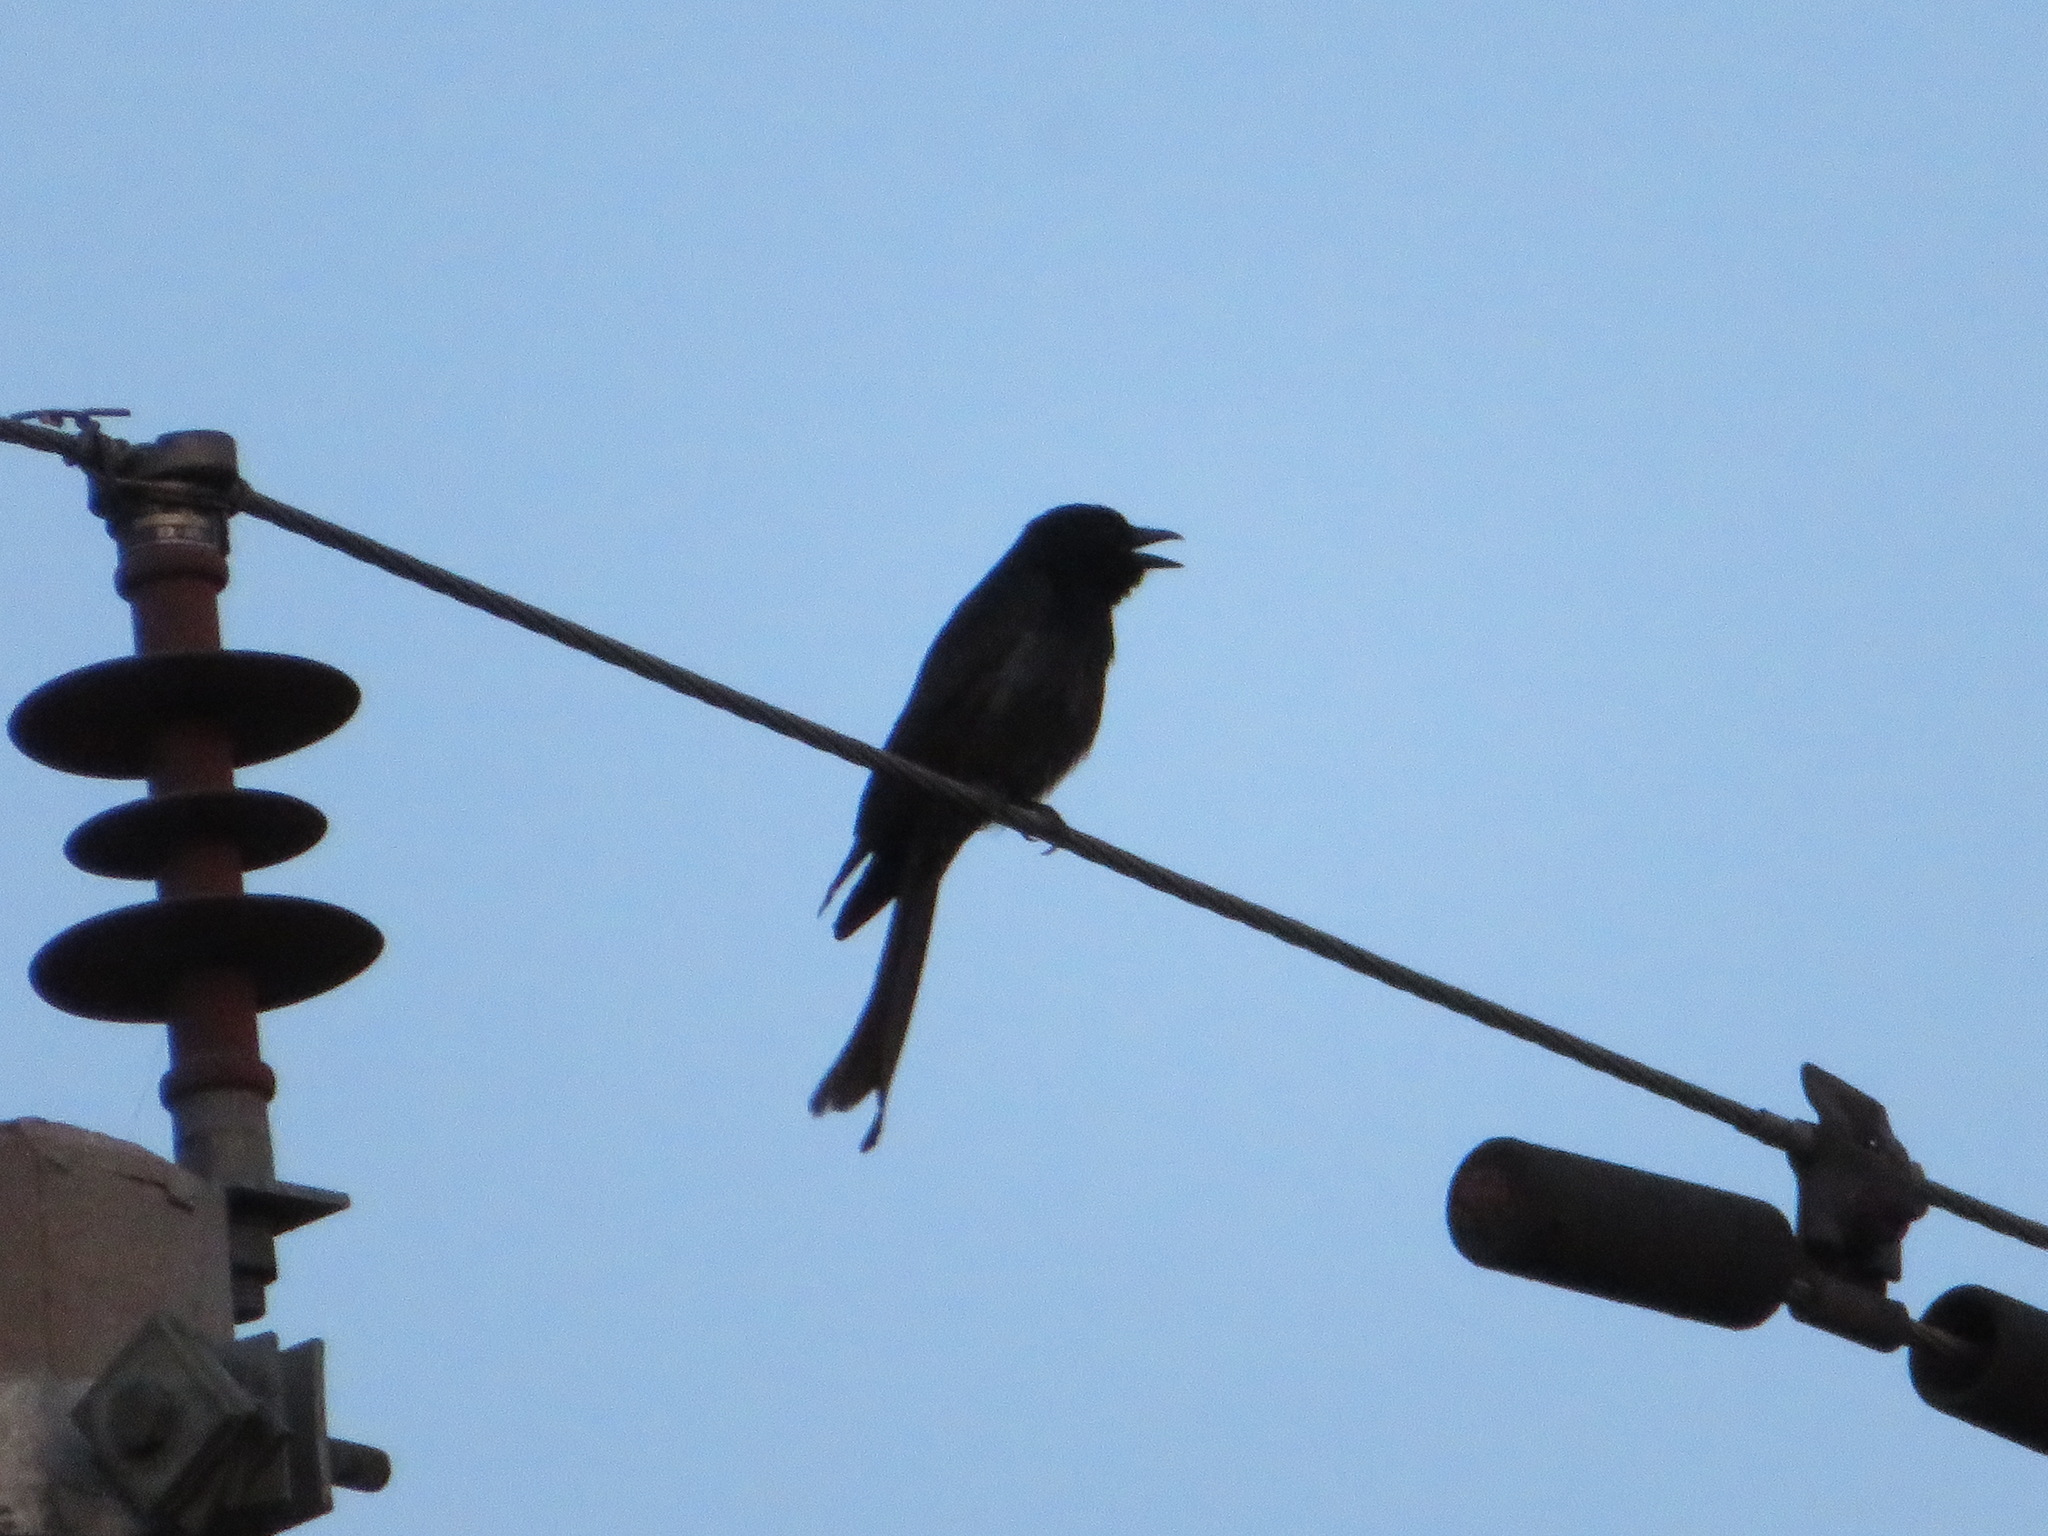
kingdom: Animalia
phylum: Chordata
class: Aves
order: Passeriformes
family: Dicruridae
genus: Dicrurus
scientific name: Dicrurus macrocercus
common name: Black drongo
